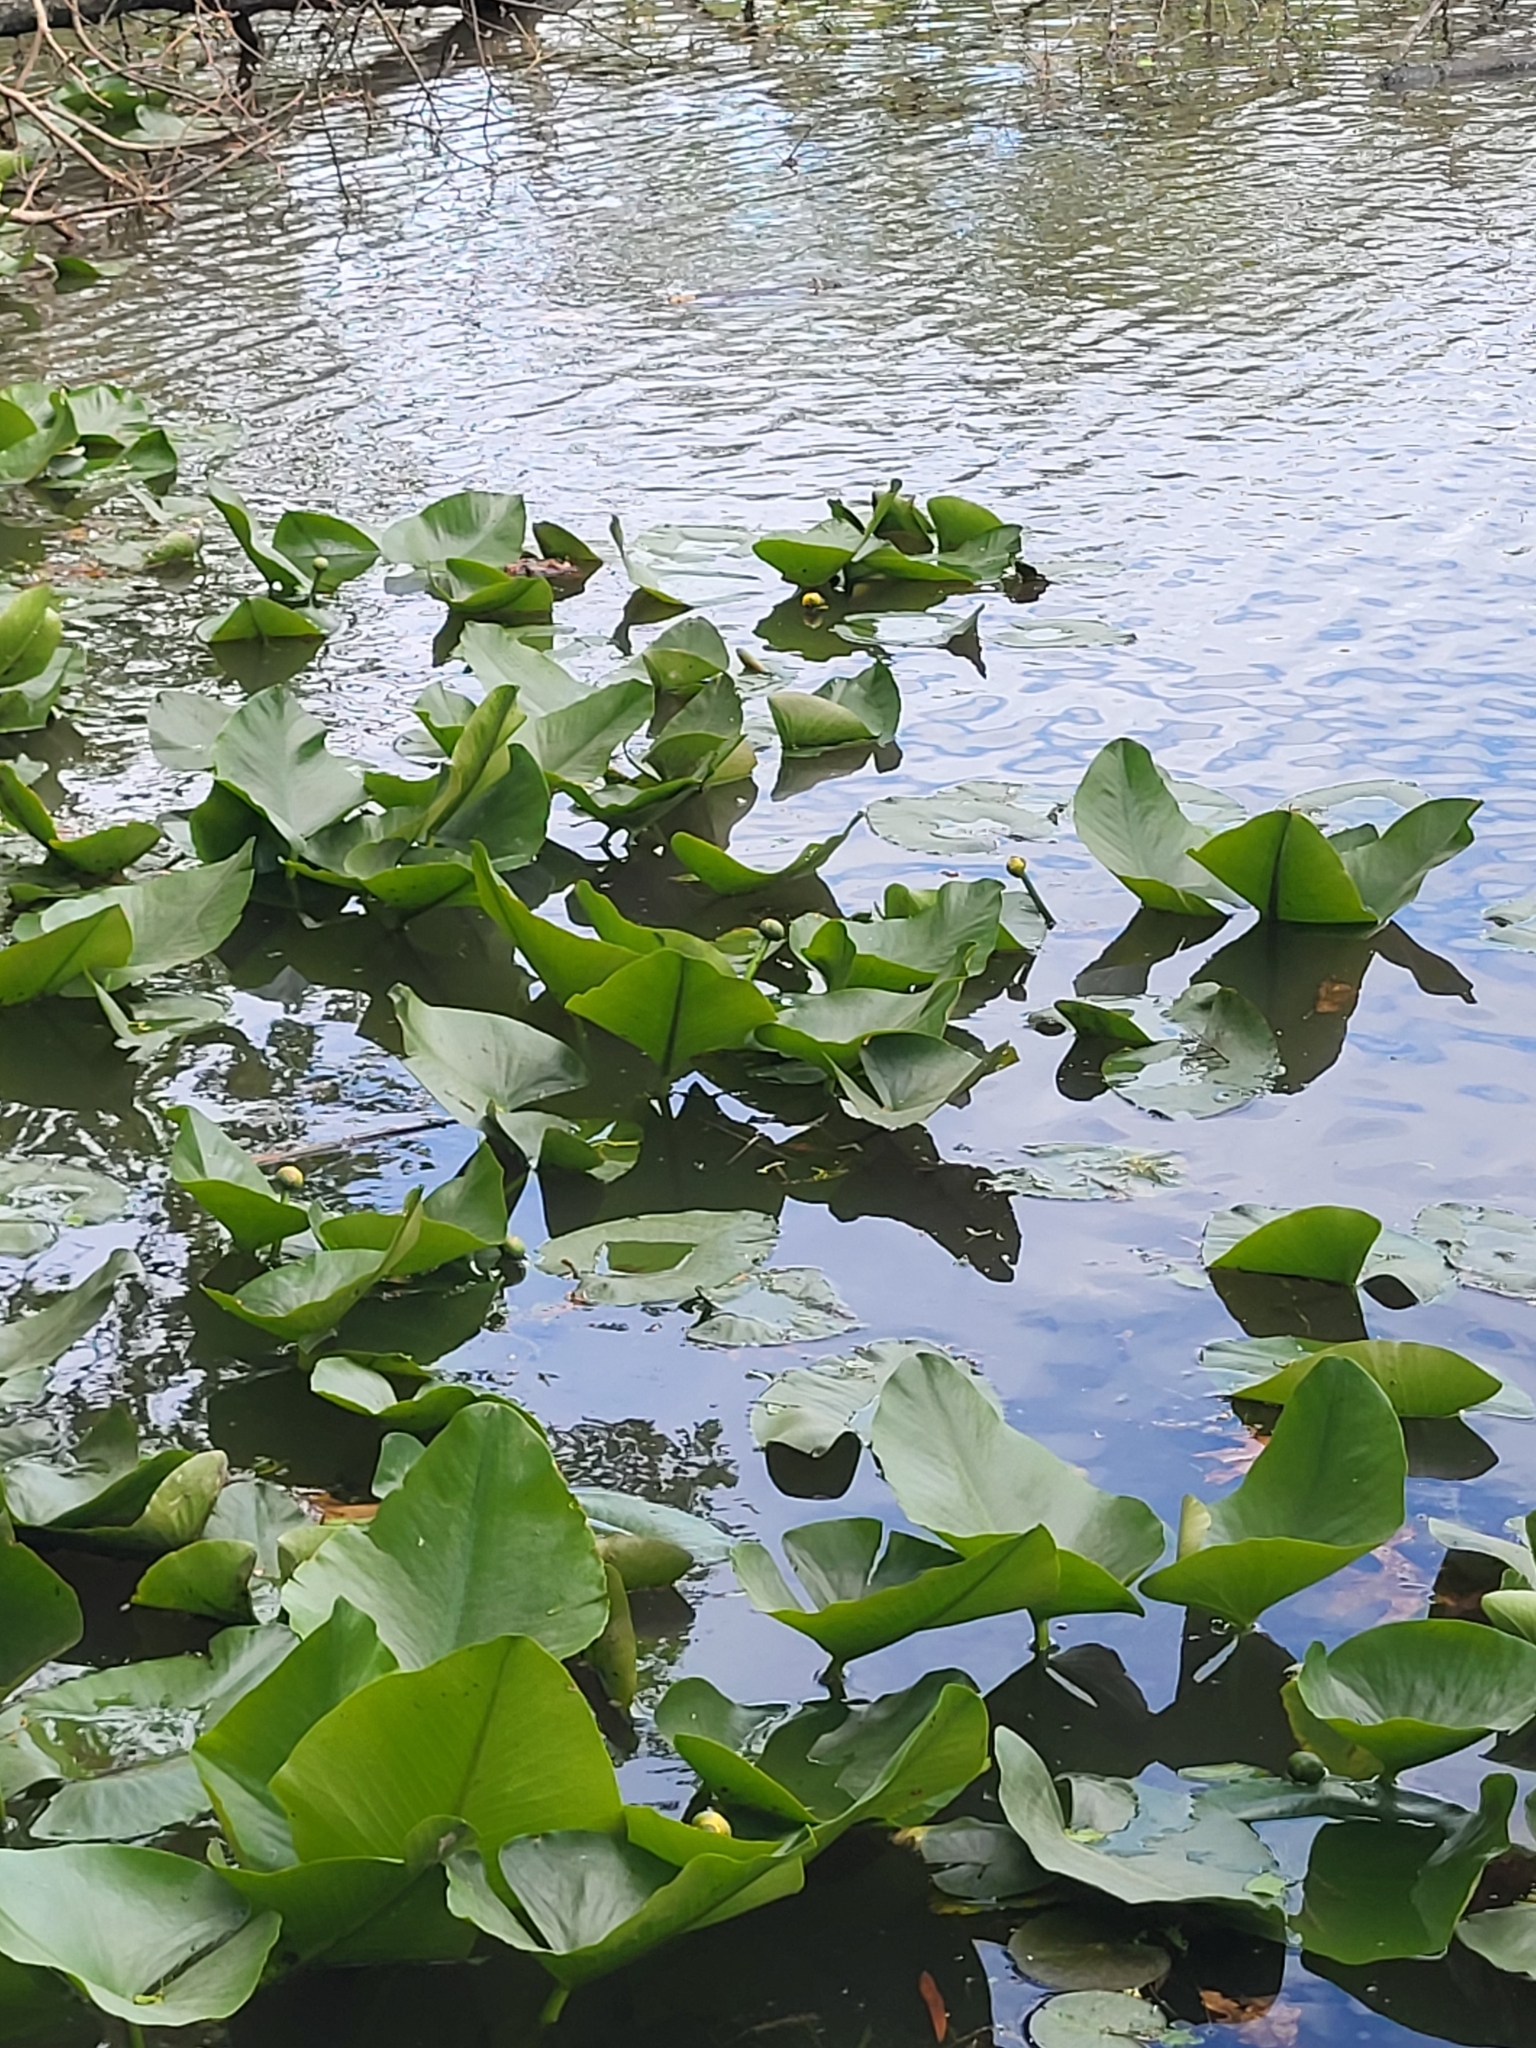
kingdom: Plantae
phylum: Tracheophyta
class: Magnoliopsida
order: Nymphaeales
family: Nymphaeaceae
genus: Nuphar
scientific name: Nuphar advena
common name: Spatter-dock
